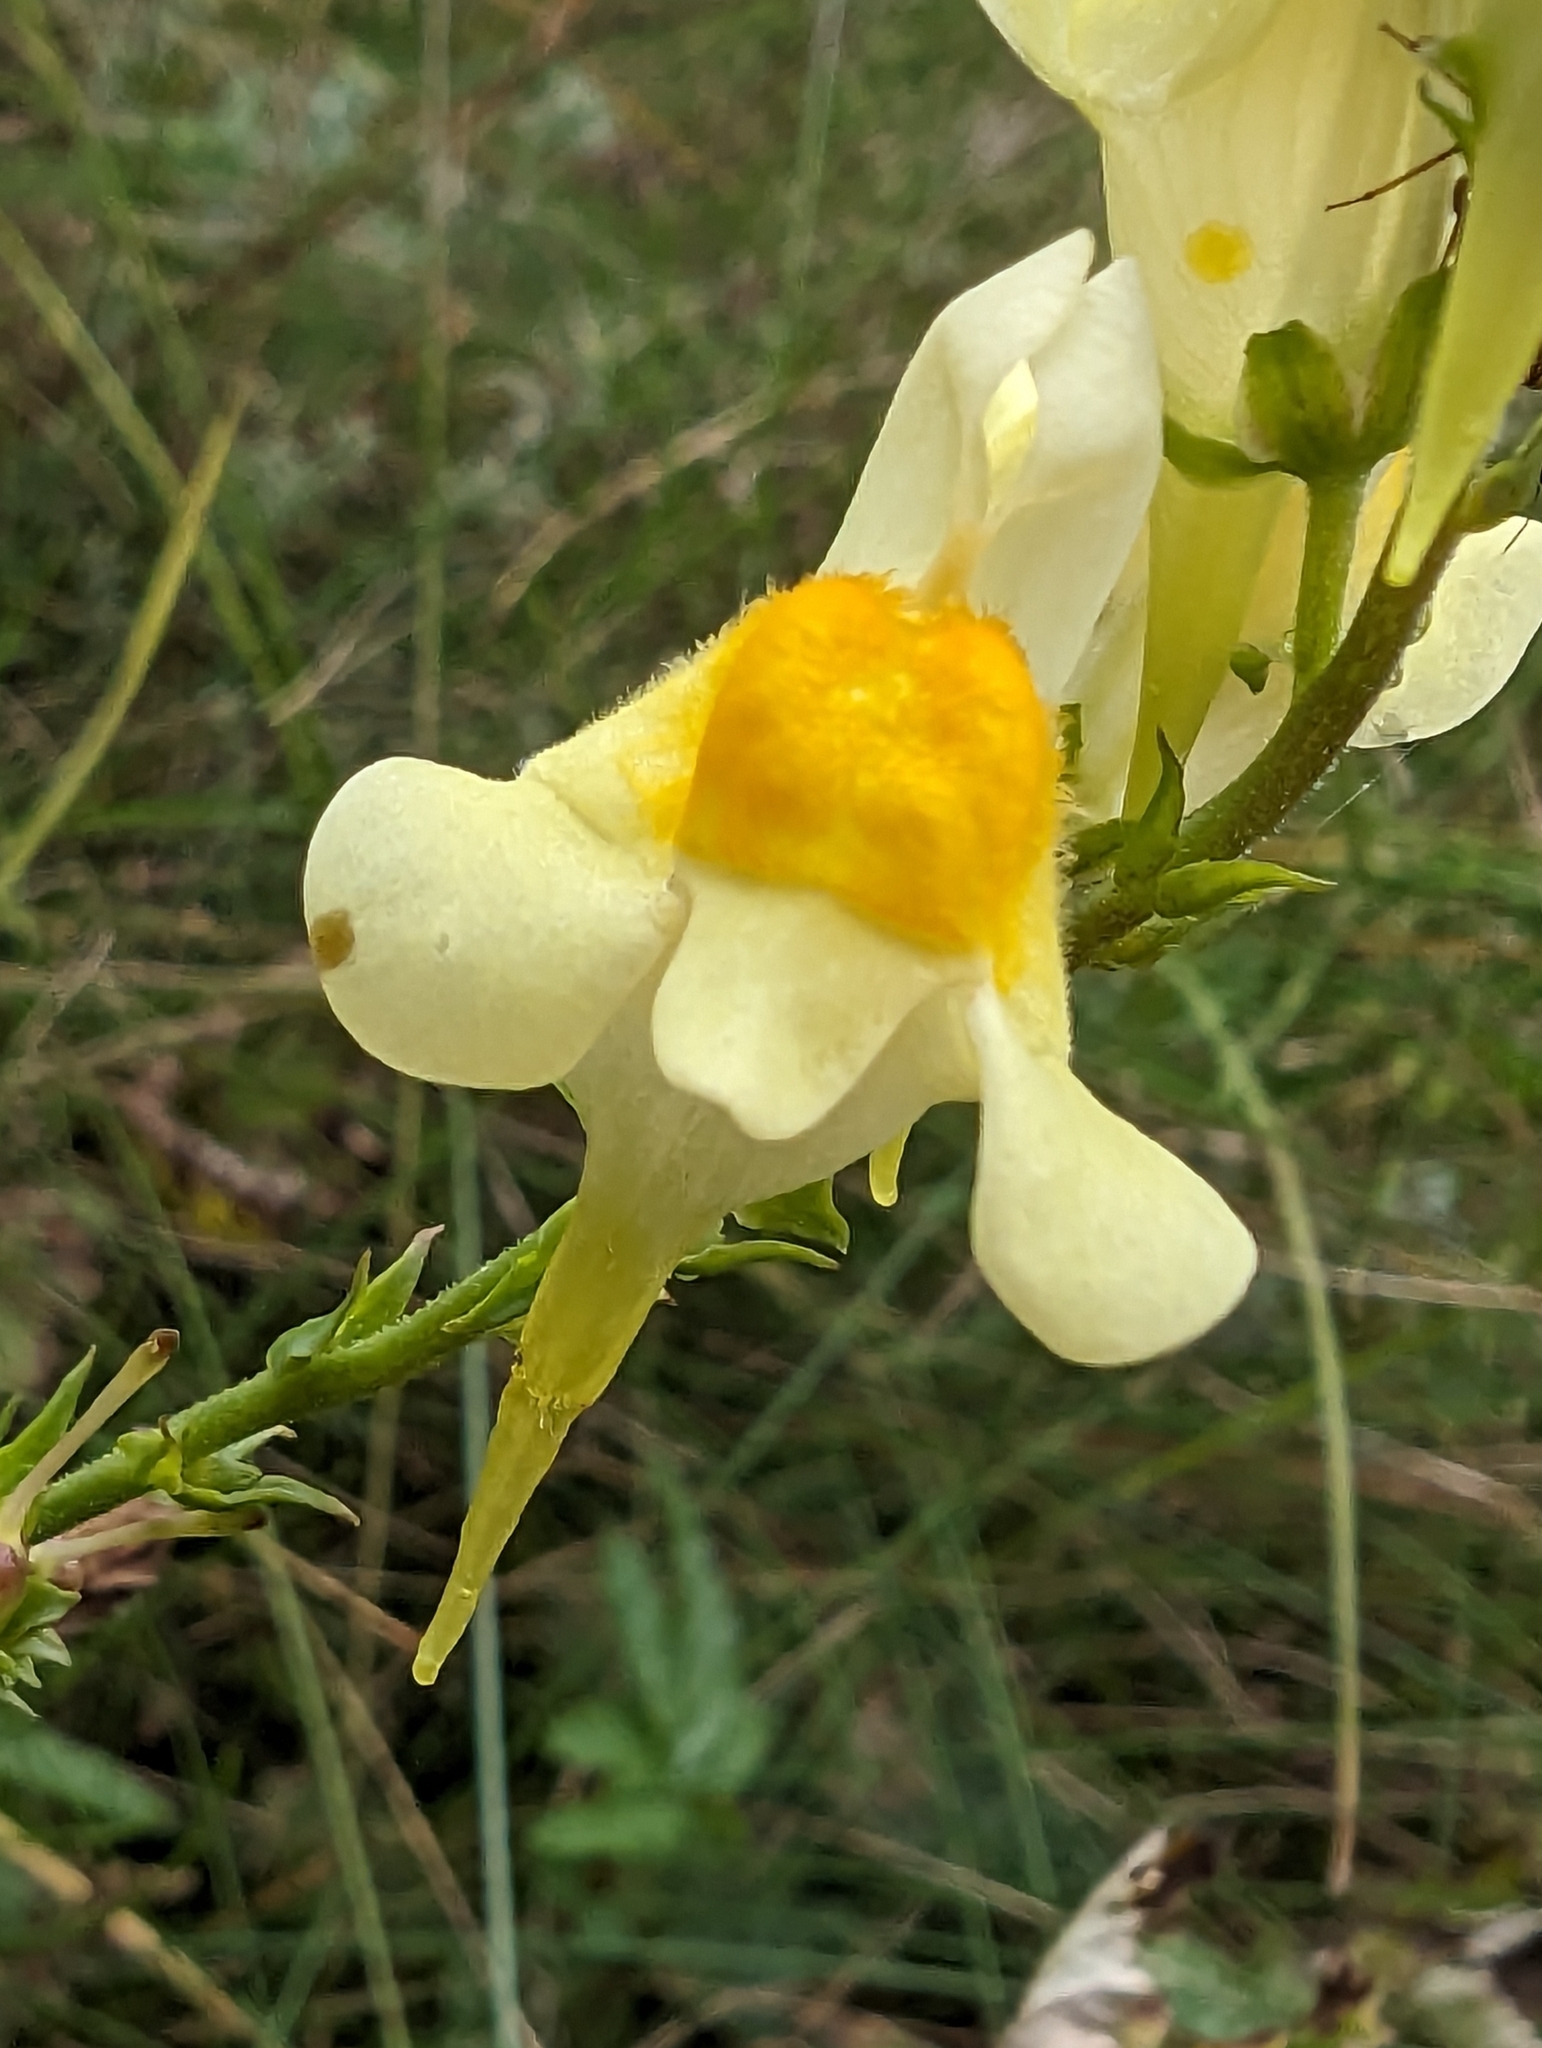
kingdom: Plantae
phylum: Tracheophyta
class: Magnoliopsida
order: Lamiales
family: Plantaginaceae
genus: Linaria
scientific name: Linaria vulgaris
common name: Butter and eggs
